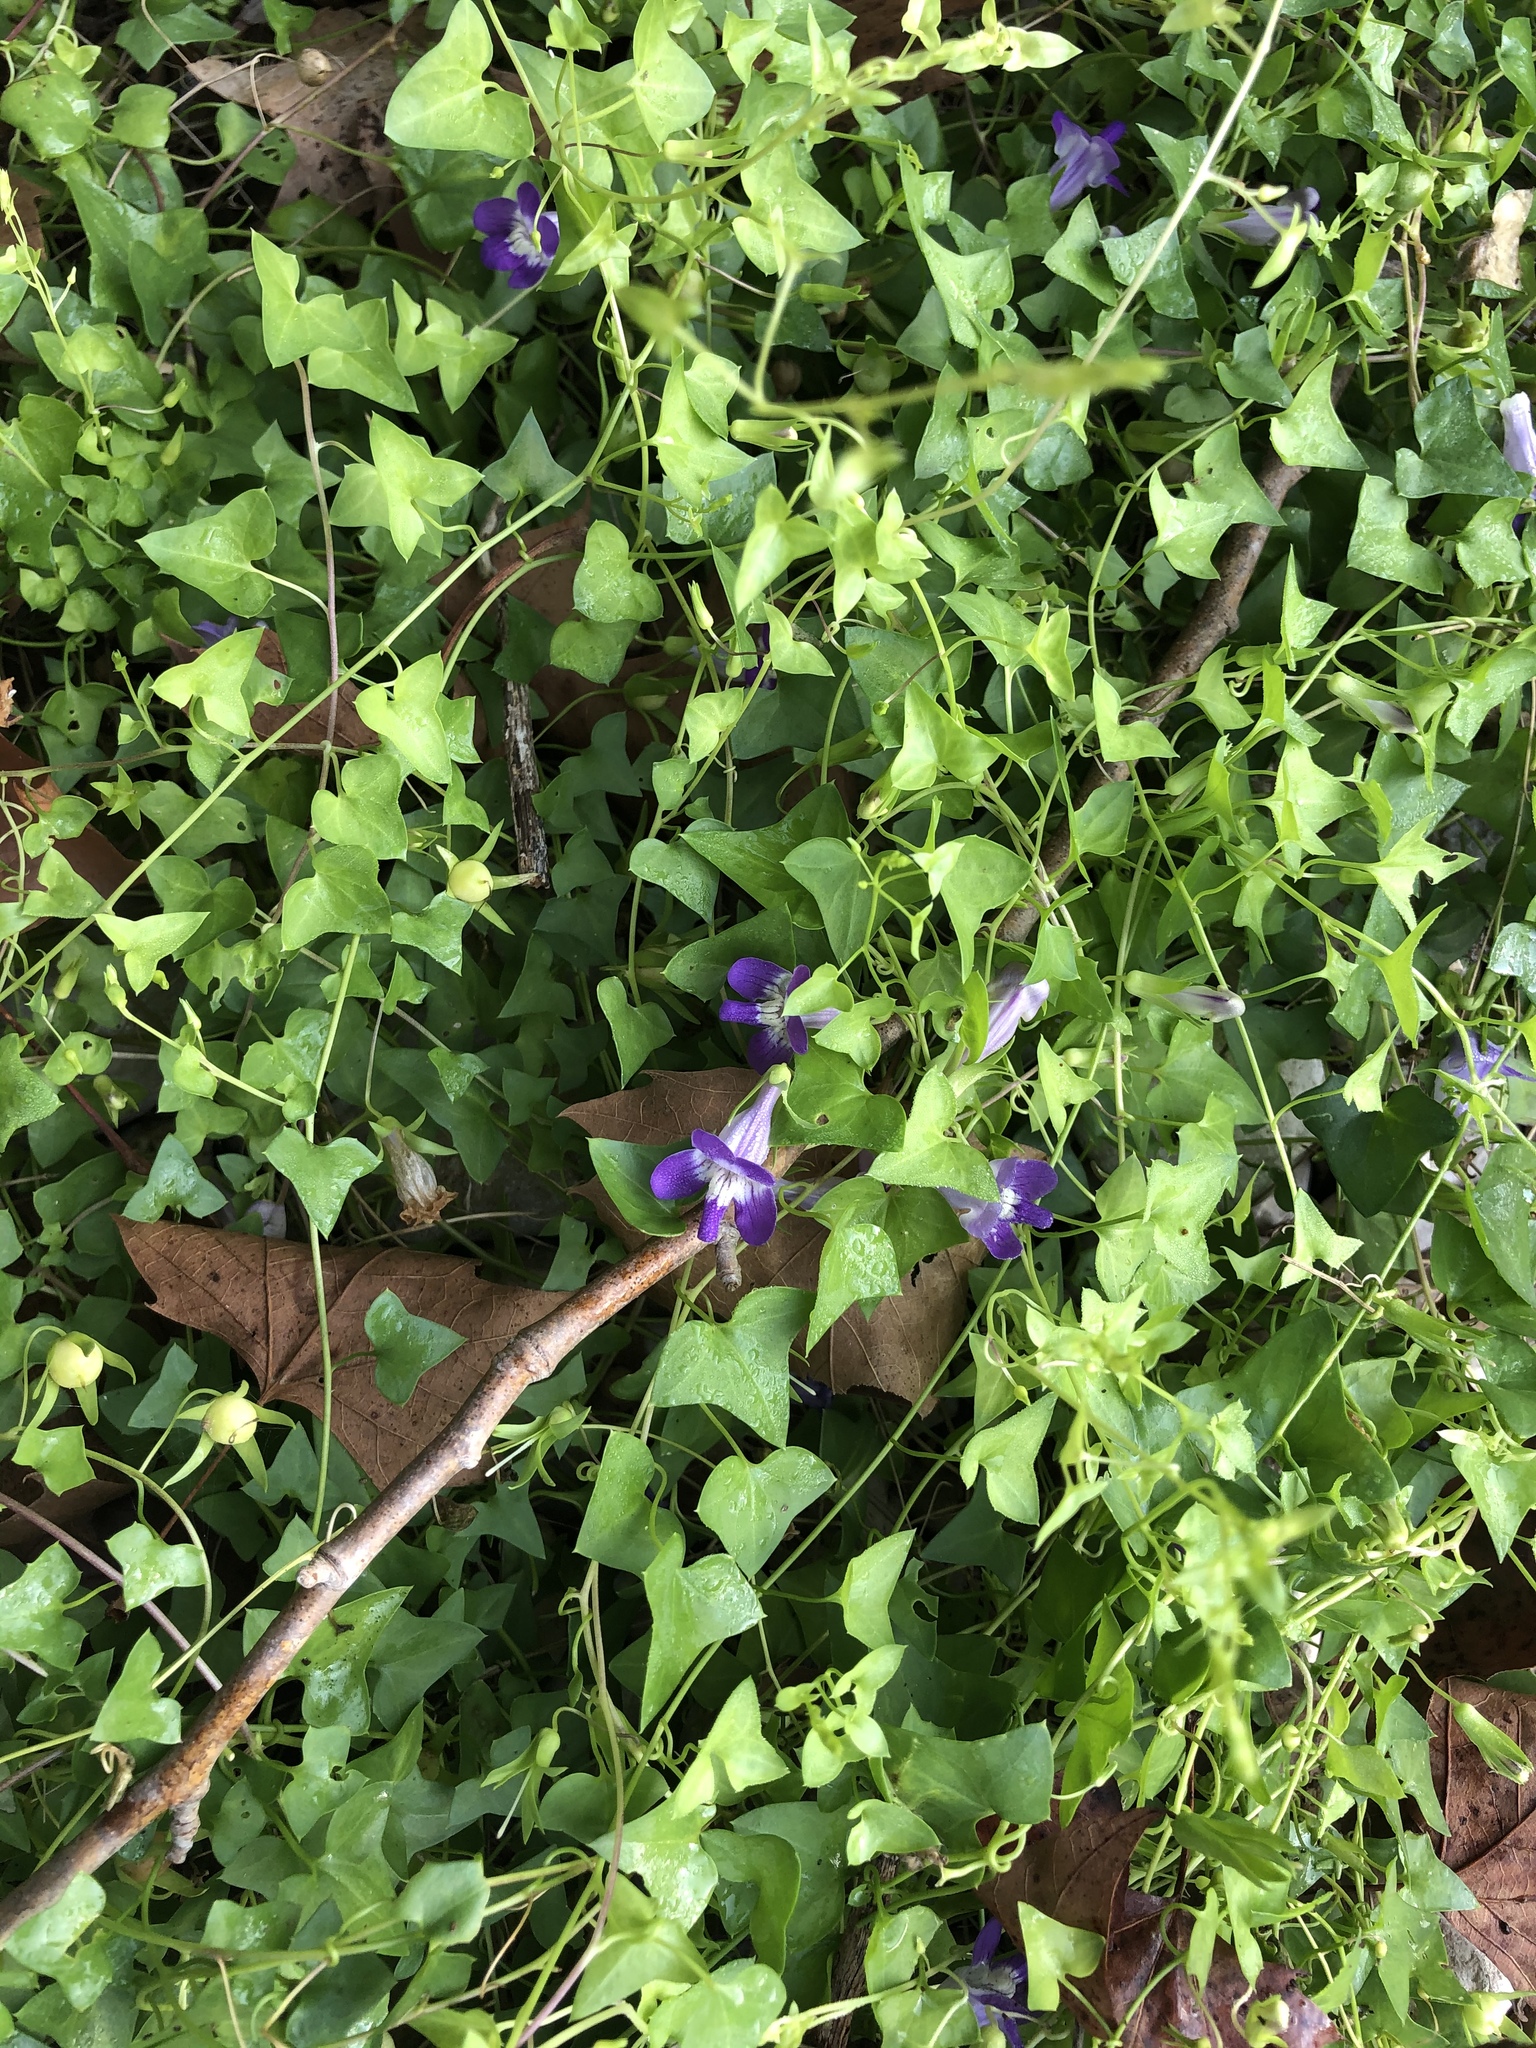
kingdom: Plantae
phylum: Tracheophyta
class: Magnoliopsida
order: Lamiales
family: Plantaginaceae
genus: Maurandella
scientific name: Maurandella antirrhiniflora
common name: Violet twining-snapdragon
